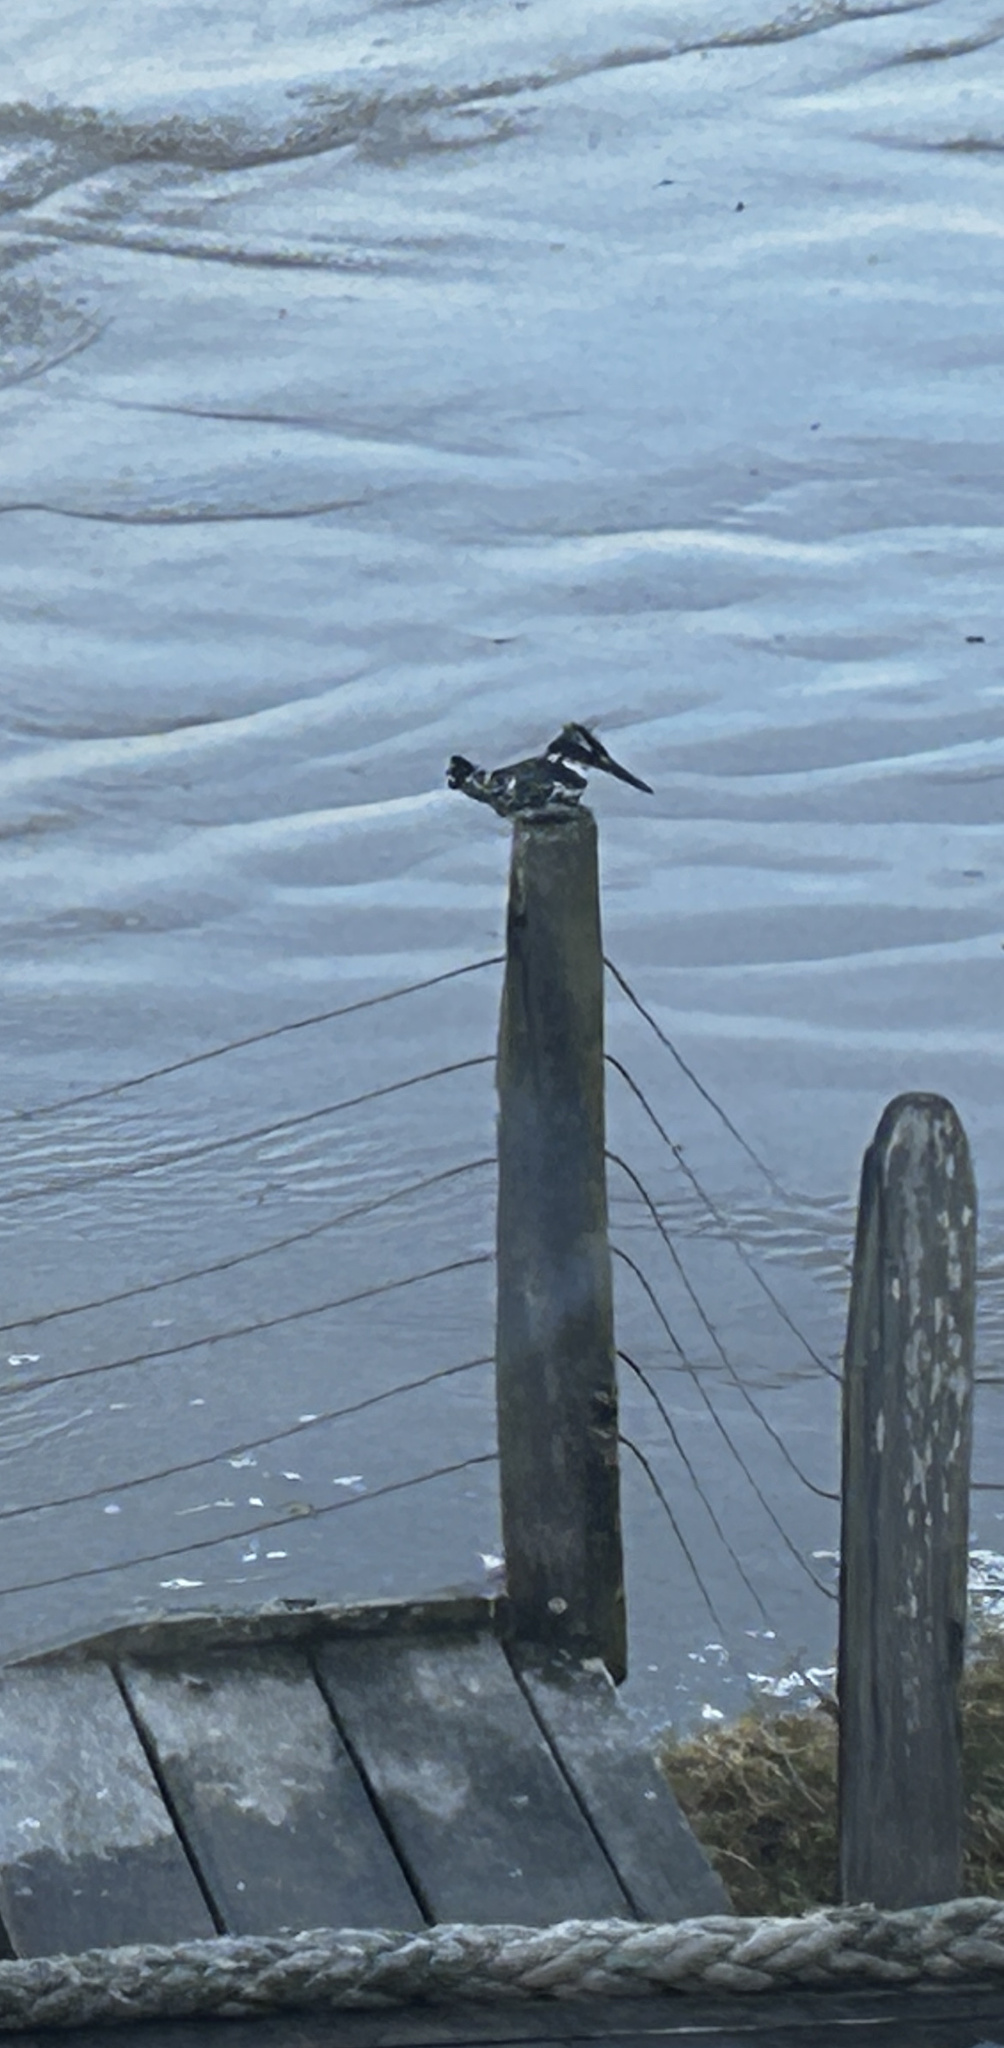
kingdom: Animalia
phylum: Chordata
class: Aves
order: Coraciiformes
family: Alcedinidae
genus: Ceryle
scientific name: Ceryle rudis
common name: Pied kingfisher
